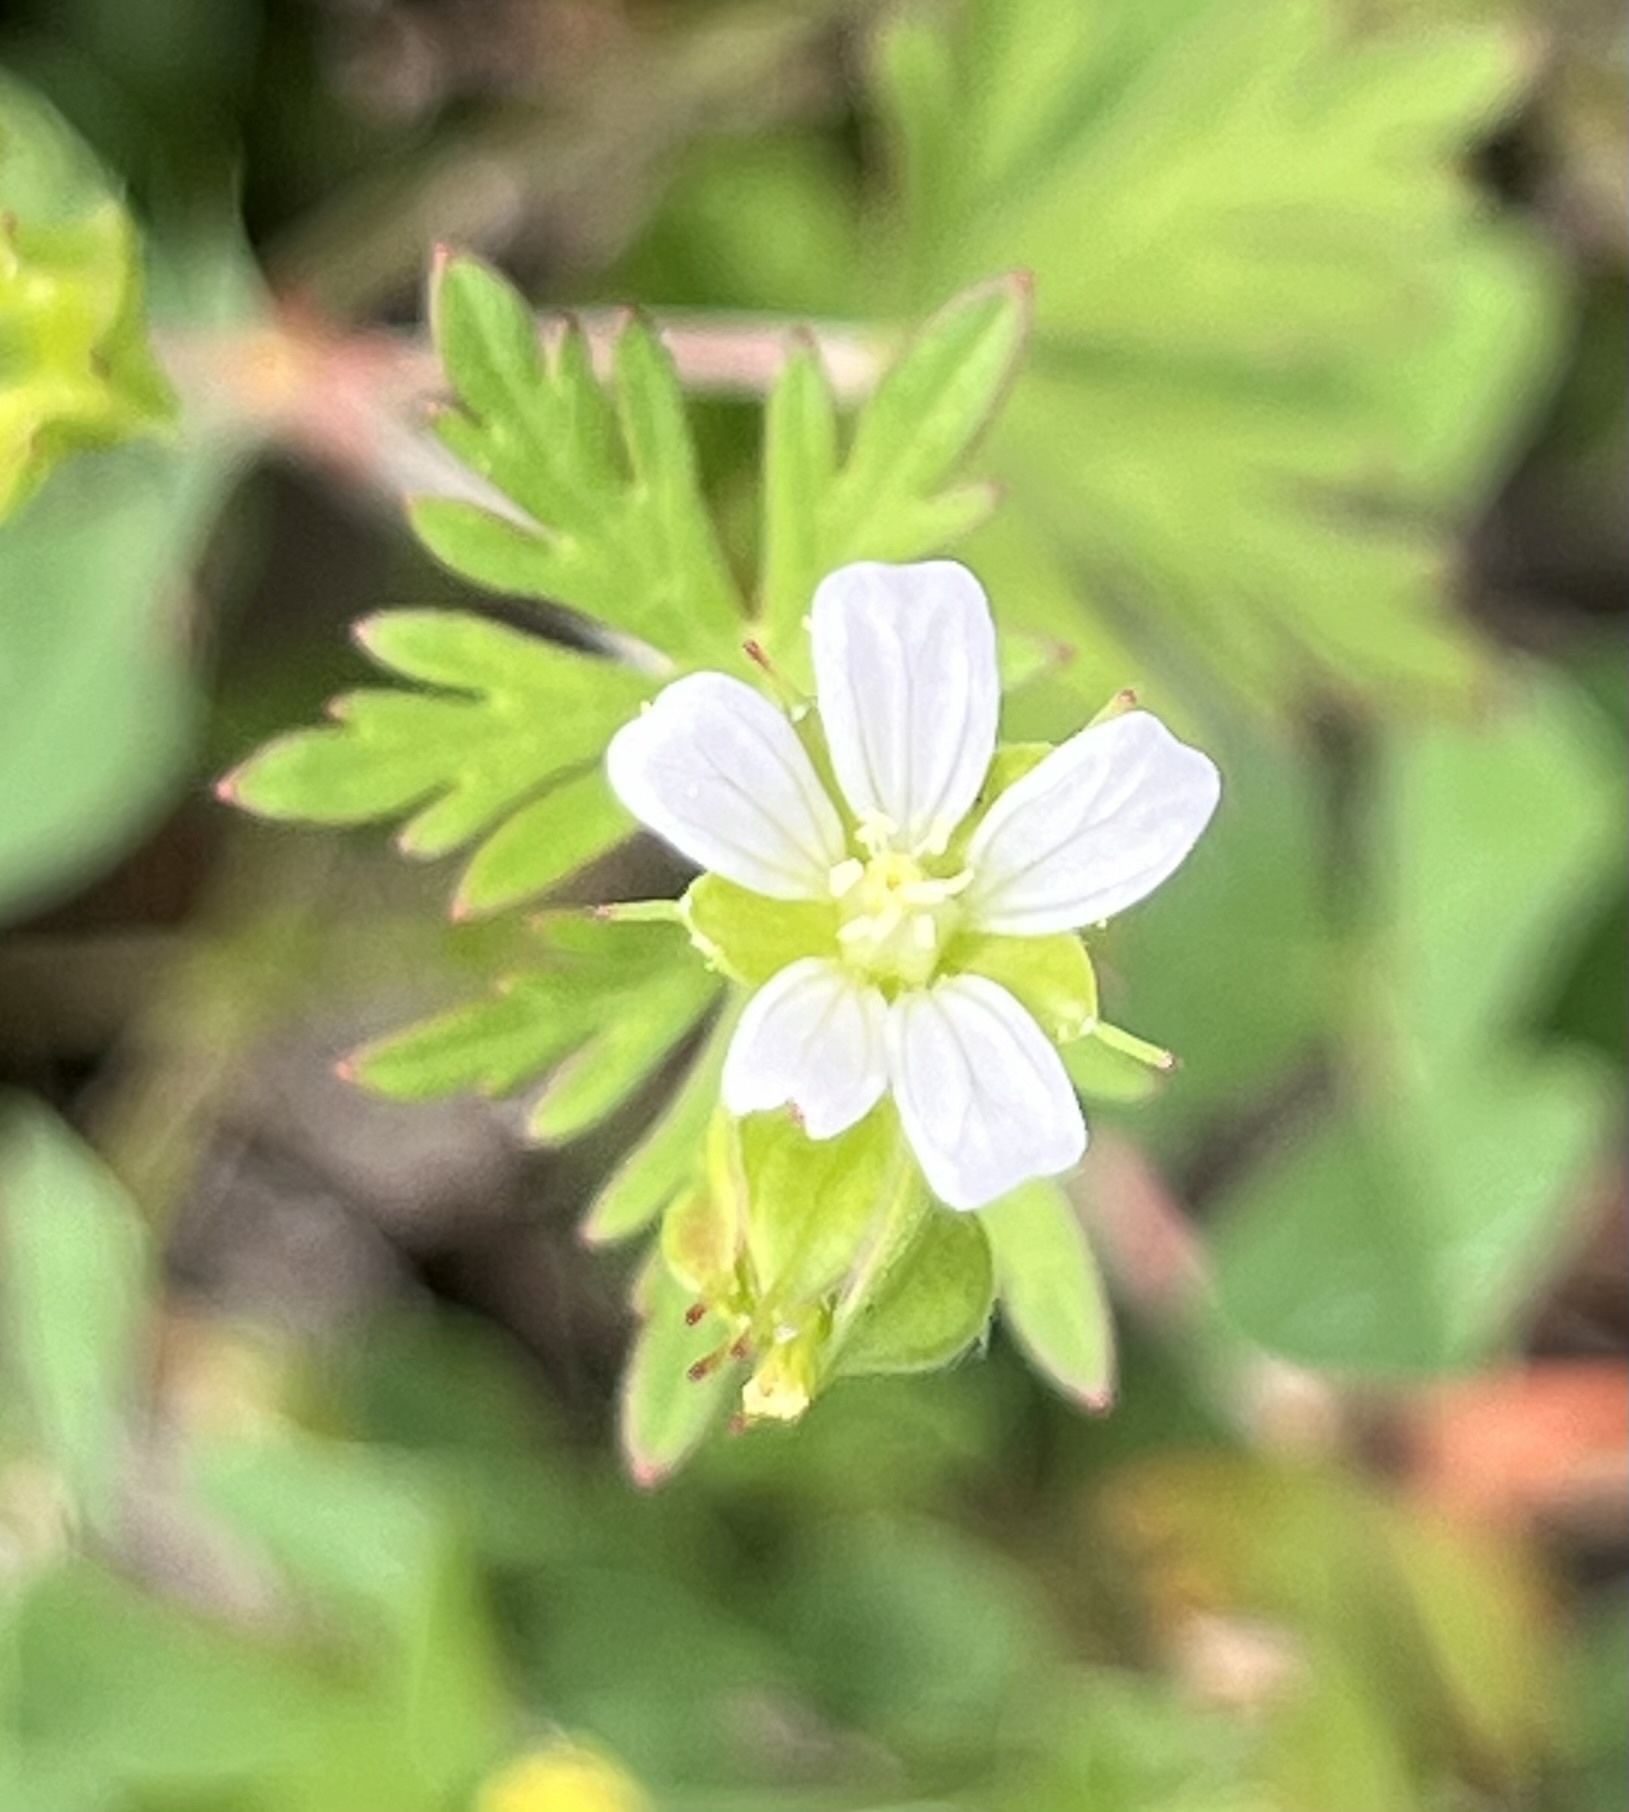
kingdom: Plantae
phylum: Tracheophyta
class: Magnoliopsida
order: Geraniales
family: Geraniaceae
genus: Geranium
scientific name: Geranium carolinianum
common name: Carolina crane's-bill
